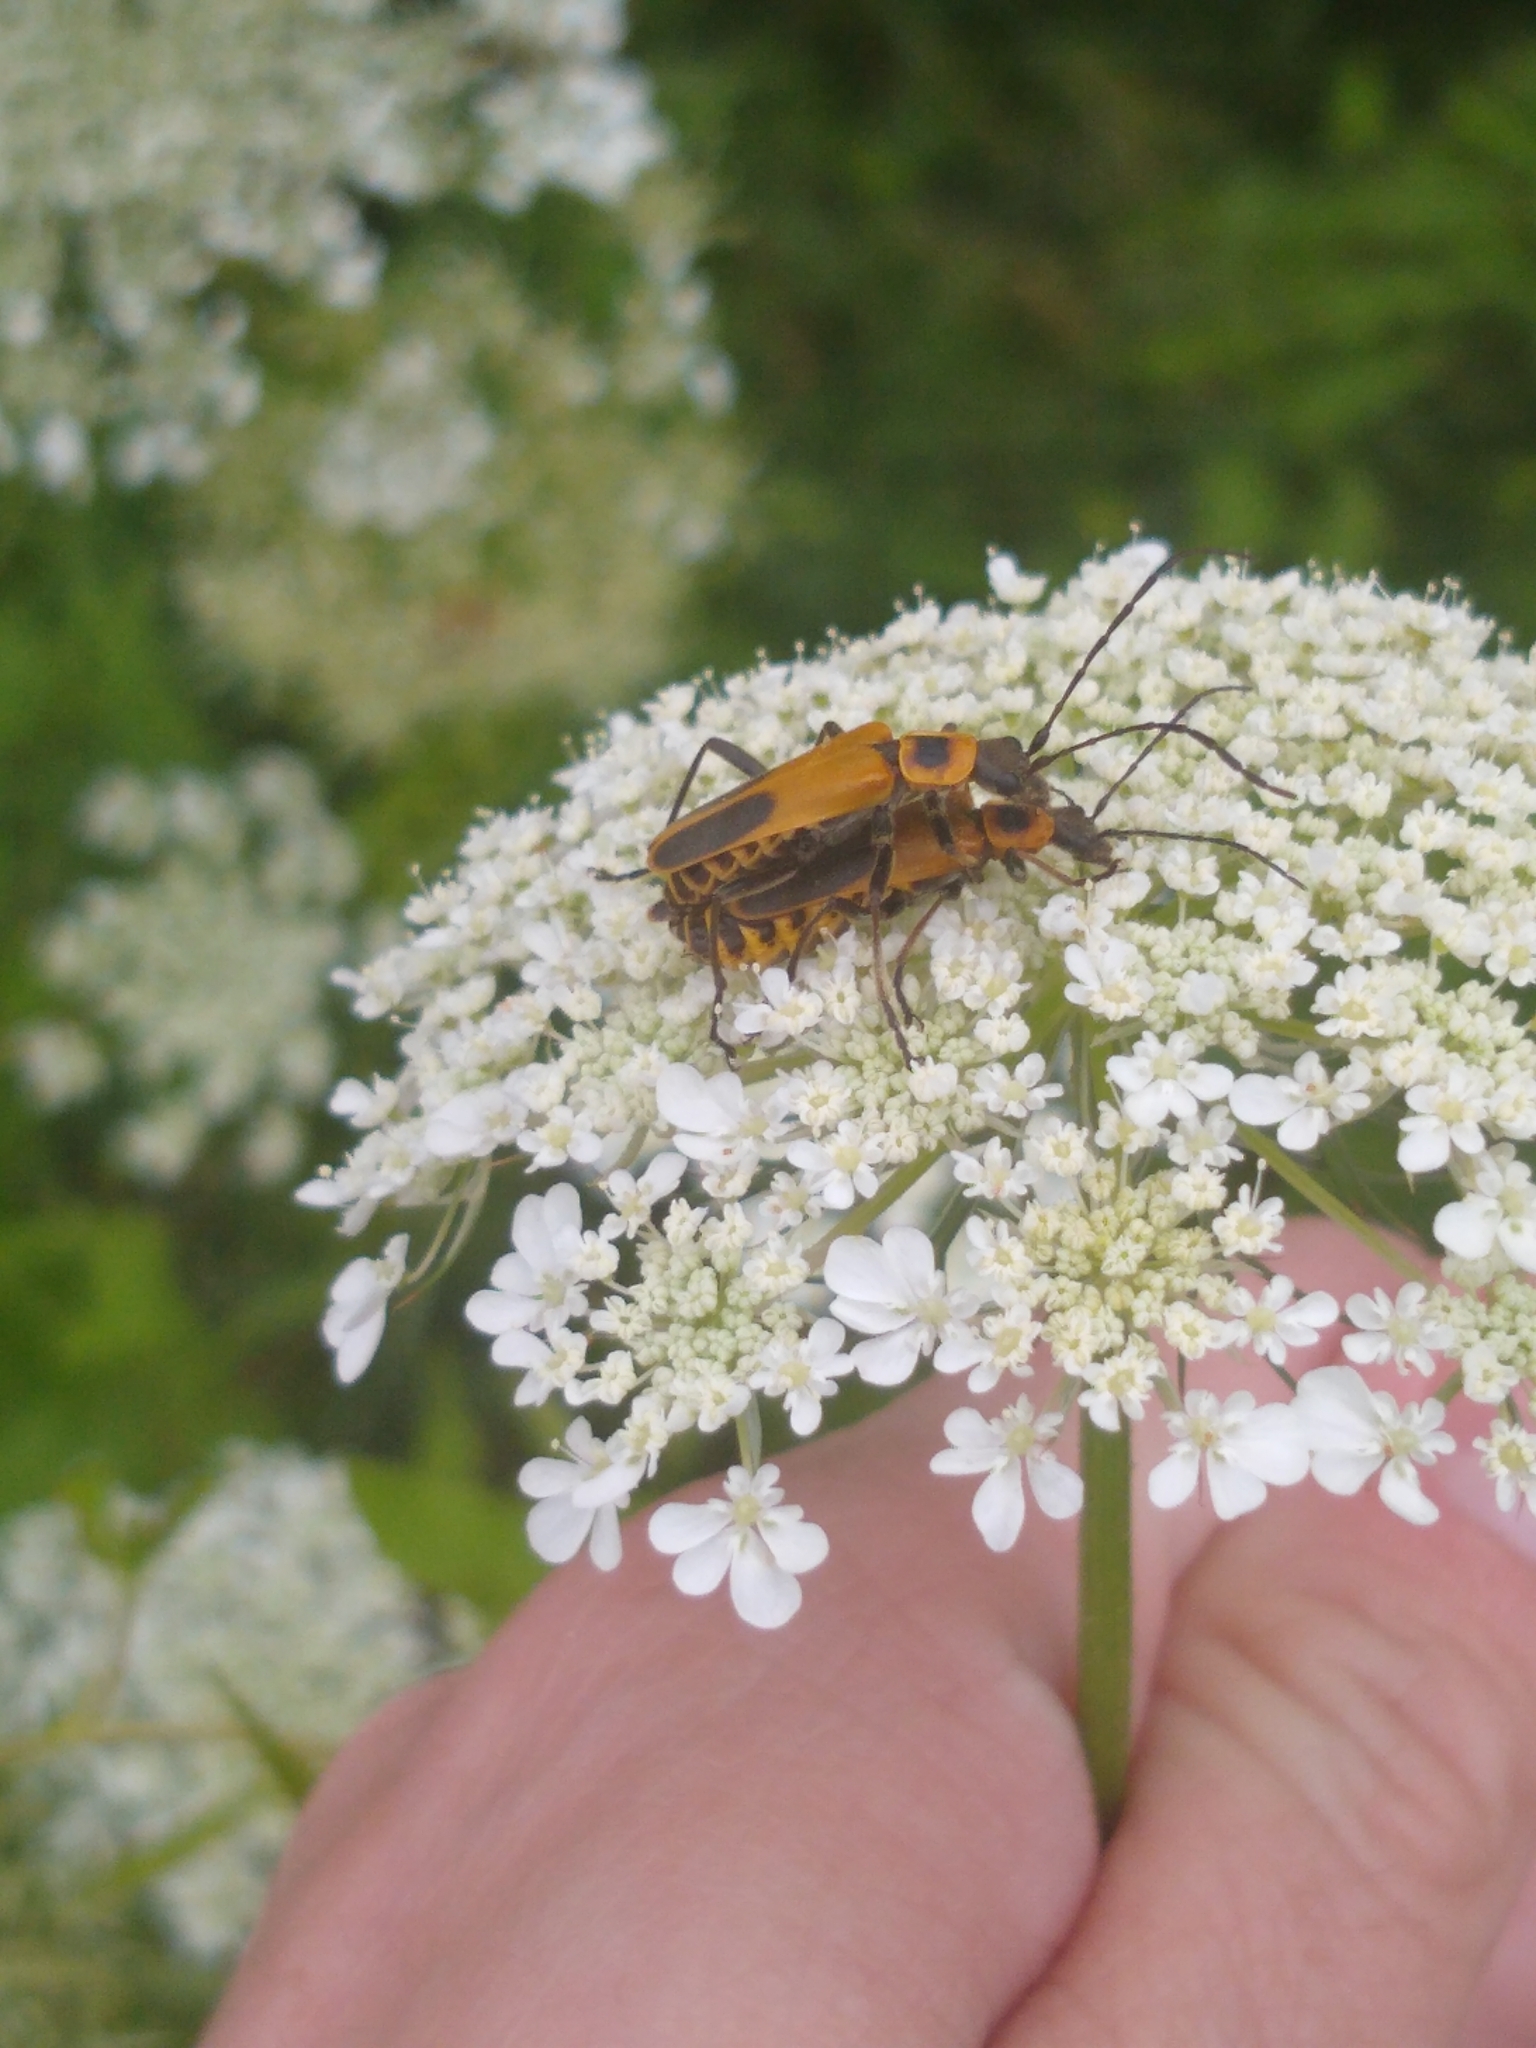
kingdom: Animalia
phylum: Arthropoda
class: Insecta
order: Coleoptera
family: Cantharidae
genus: Chauliognathus
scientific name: Chauliognathus pensylvanicus
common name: Goldenrod soldier beetle
